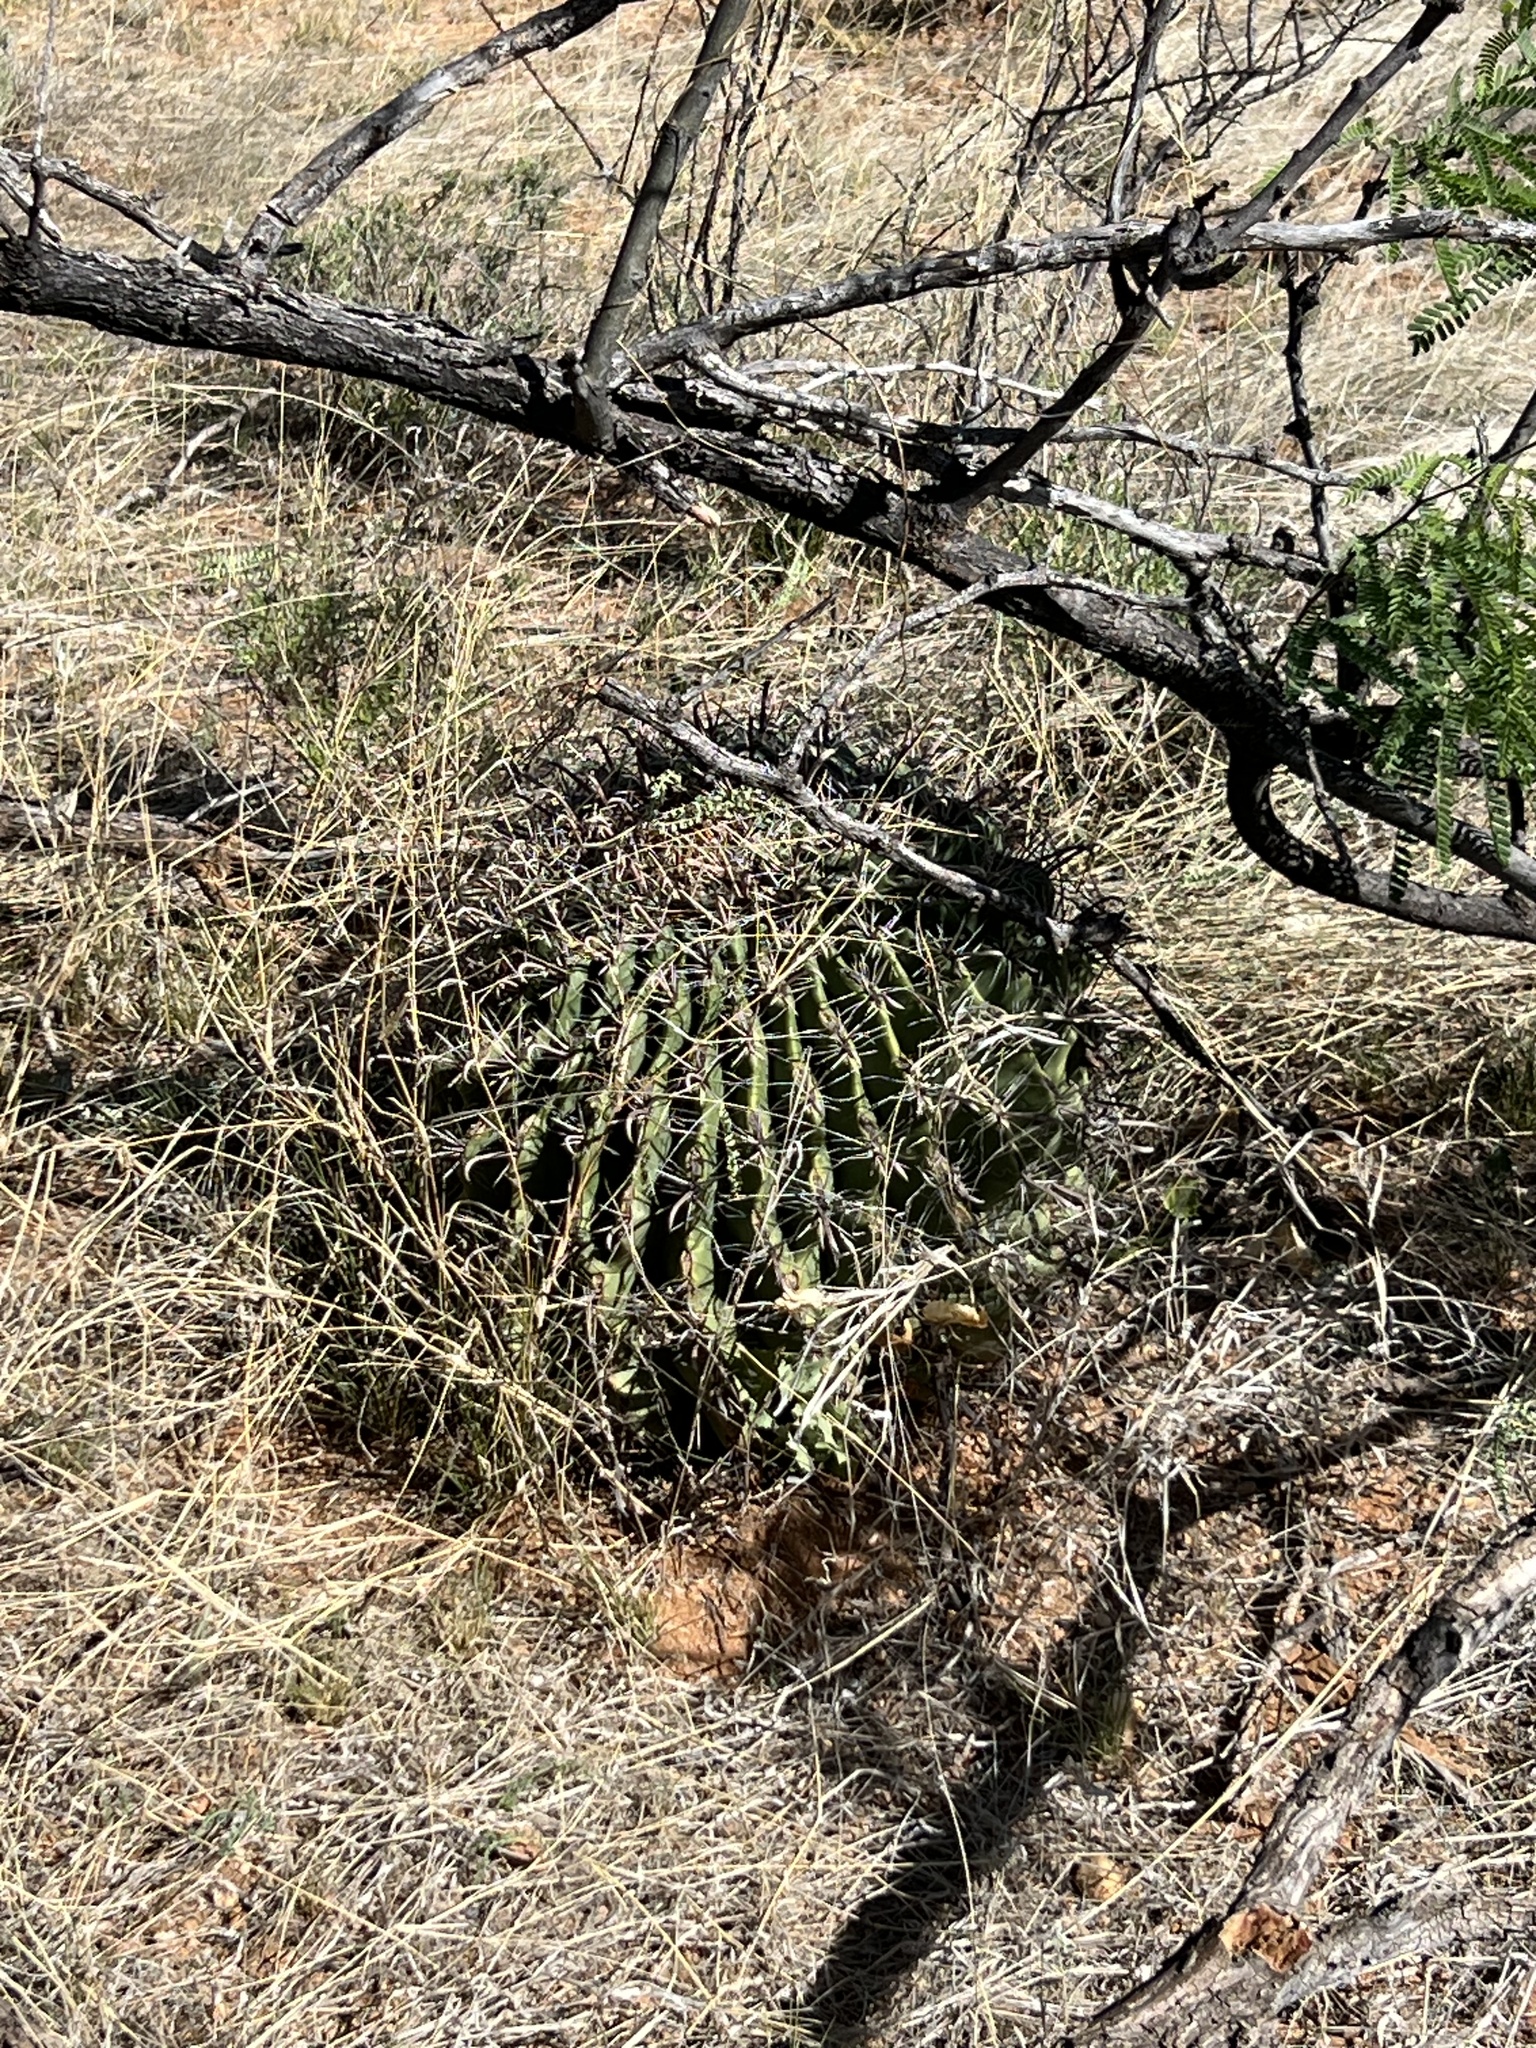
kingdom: Plantae
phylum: Tracheophyta
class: Magnoliopsida
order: Caryophyllales
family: Cactaceae
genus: Ferocactus
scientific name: Ferocactus wislizeni
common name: Candy barrel cactus
